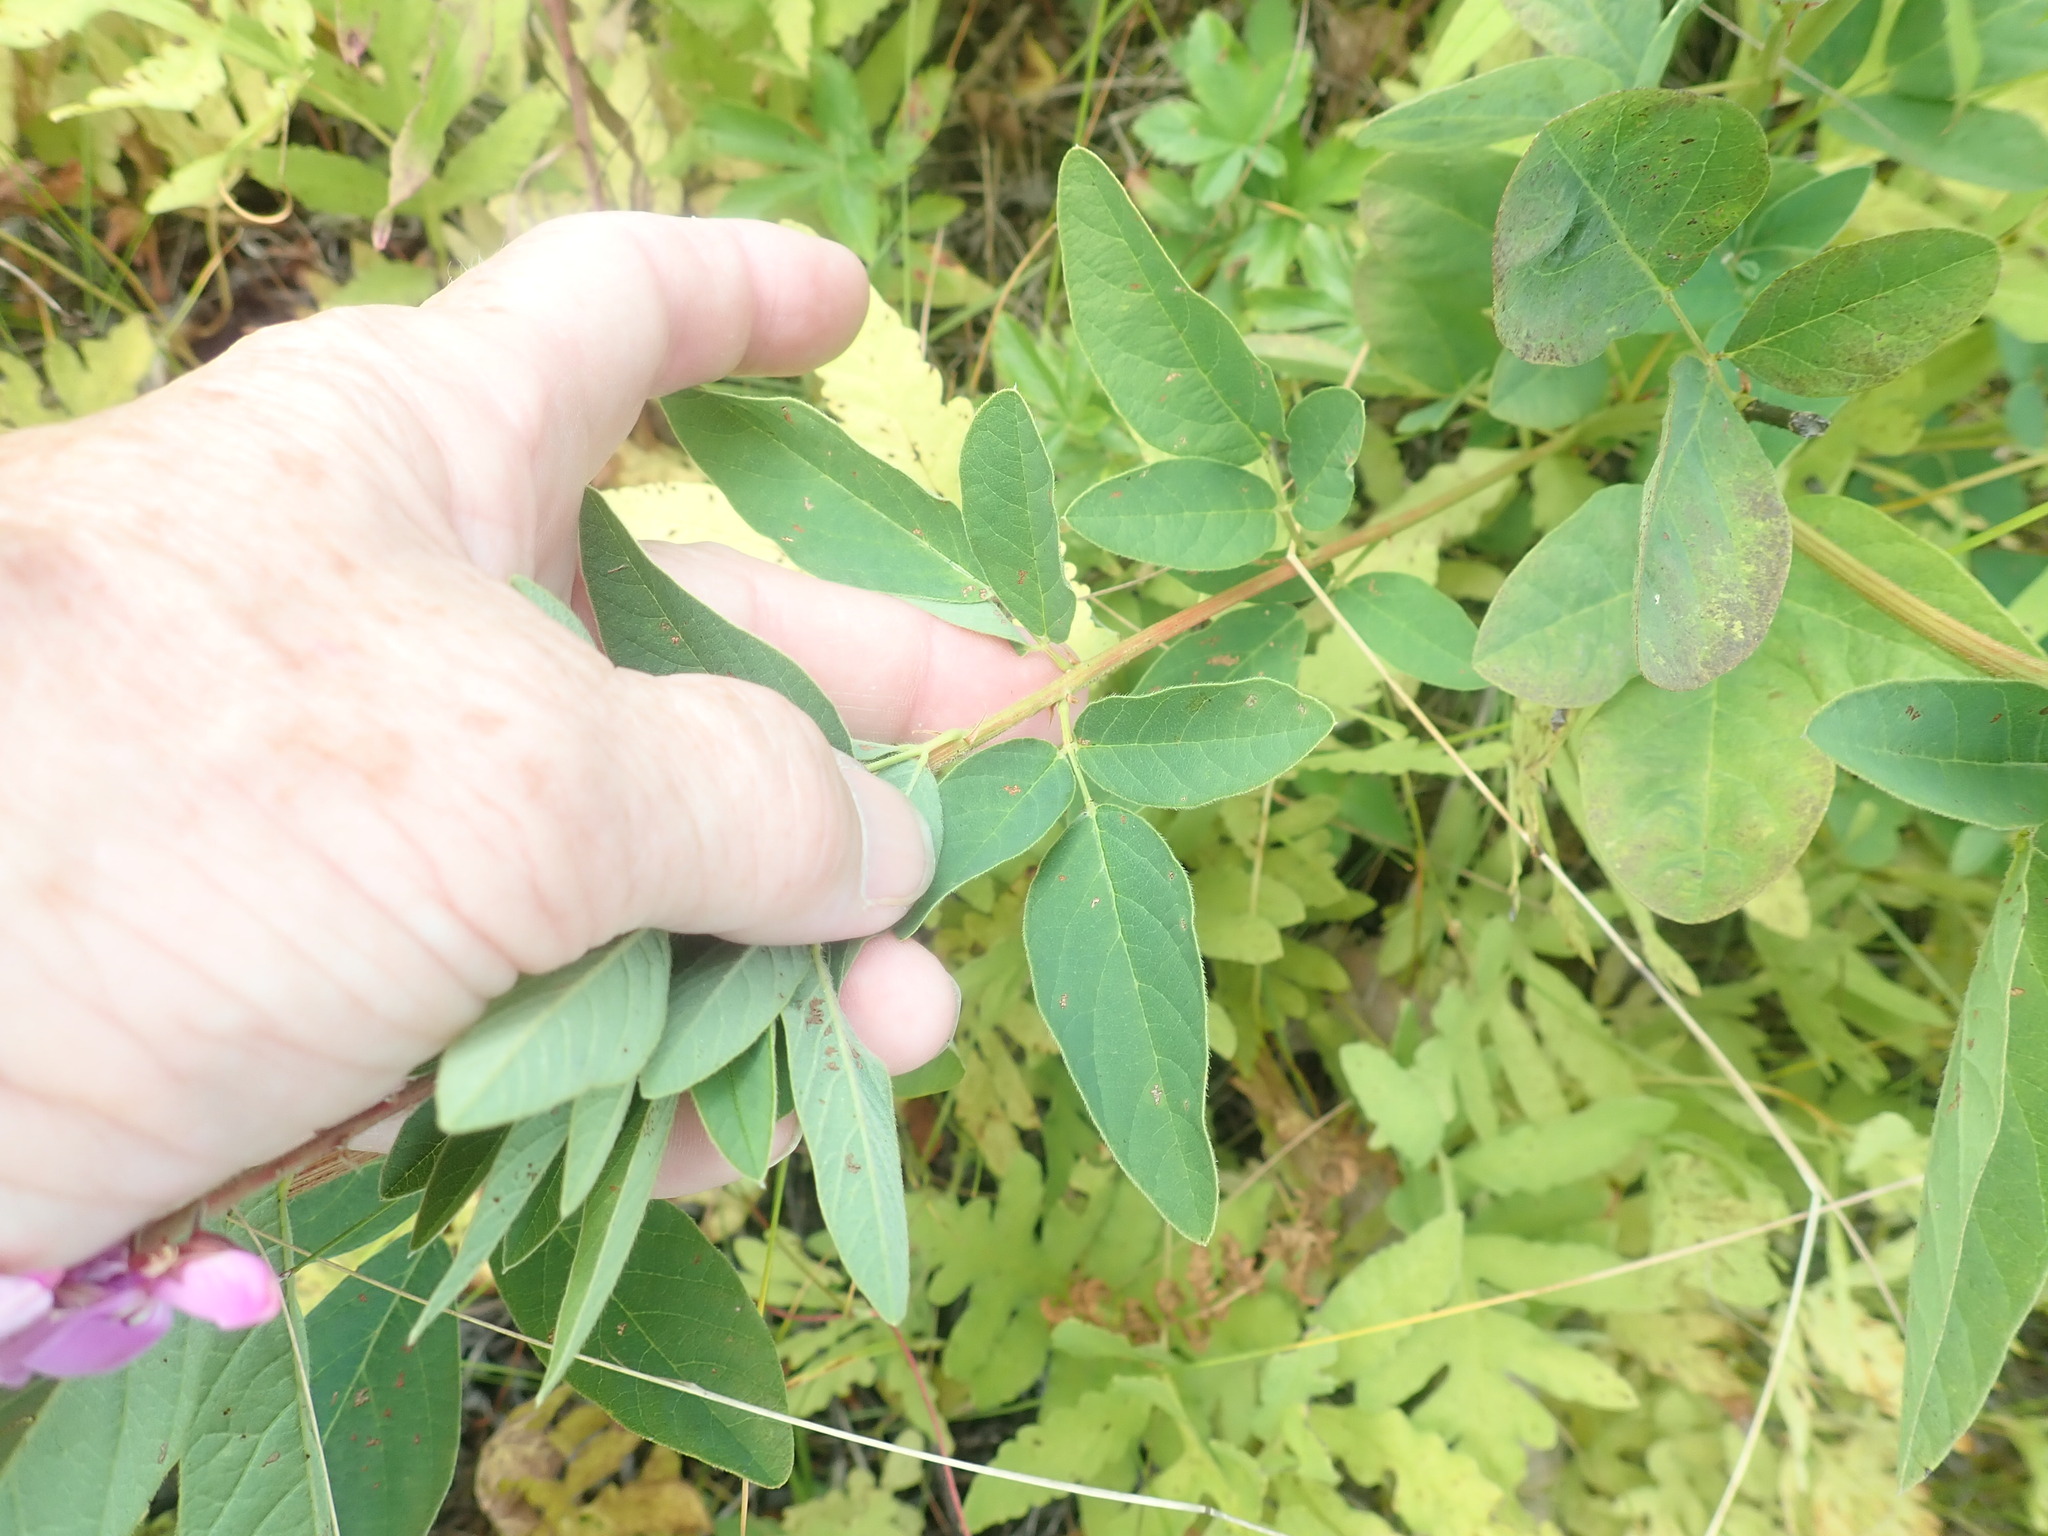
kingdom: Plantae
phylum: Tracheophyta
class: Magnoliopsida
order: Fabales
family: Fabaceae
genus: Desmodium
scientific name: Desmodium canadense
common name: Canada tick-trefoil
